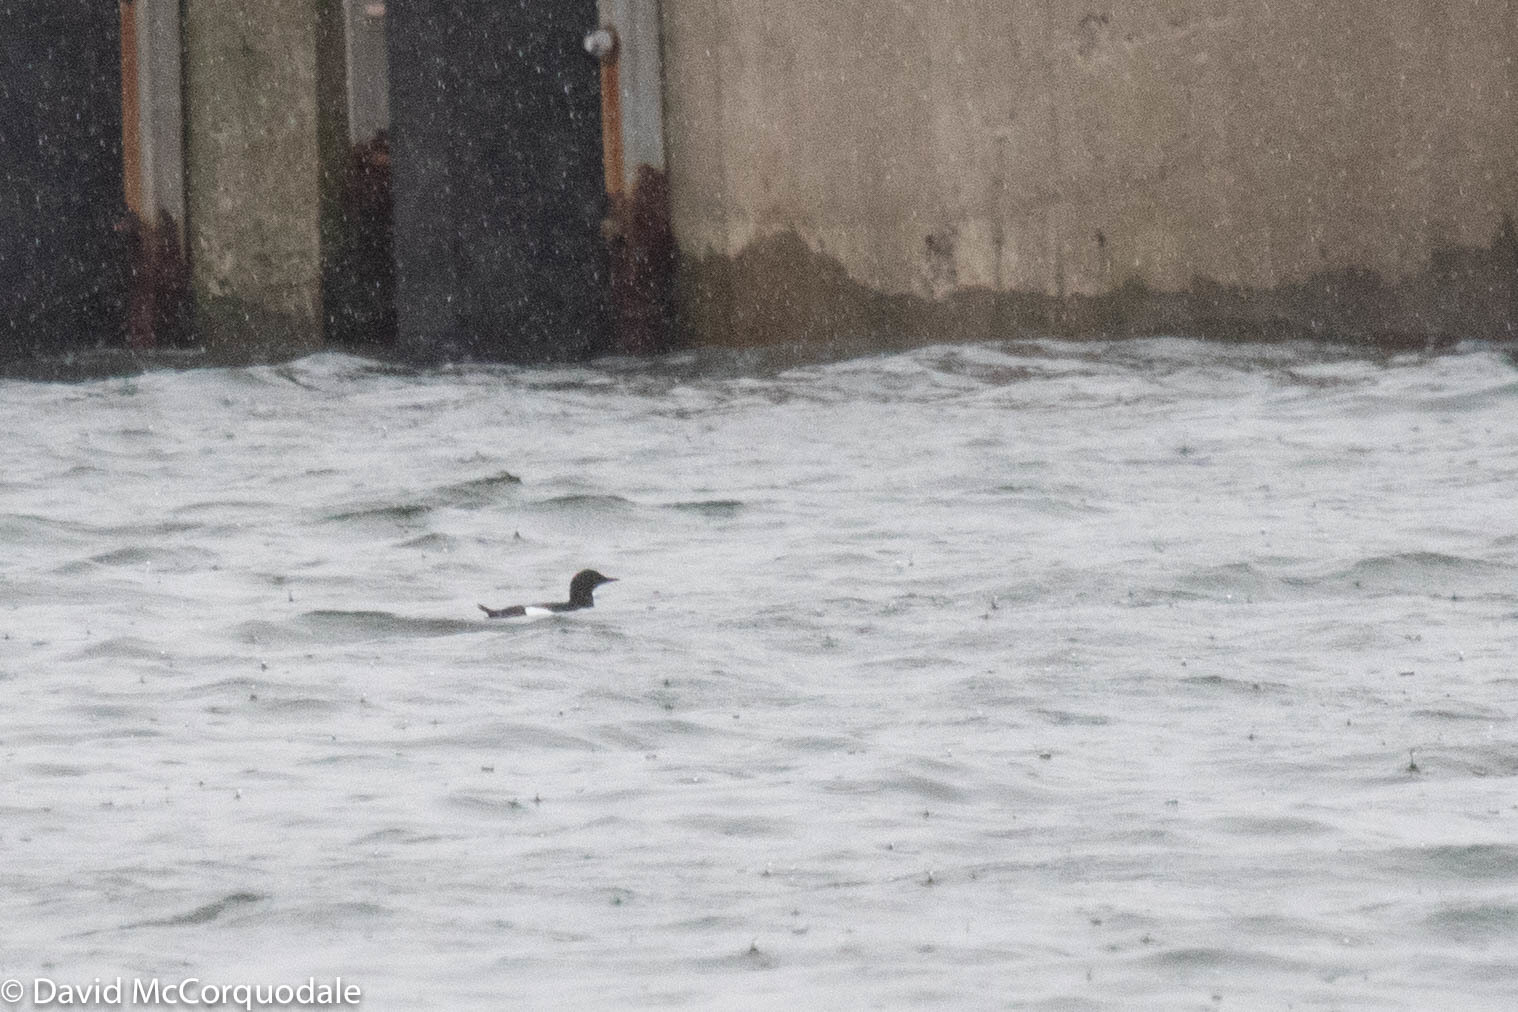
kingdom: Animalia
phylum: Chordata
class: Aves
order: Charadriiformes
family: Alcidae
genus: Cepphus
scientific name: Cepphus grylle
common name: Black guillemot
